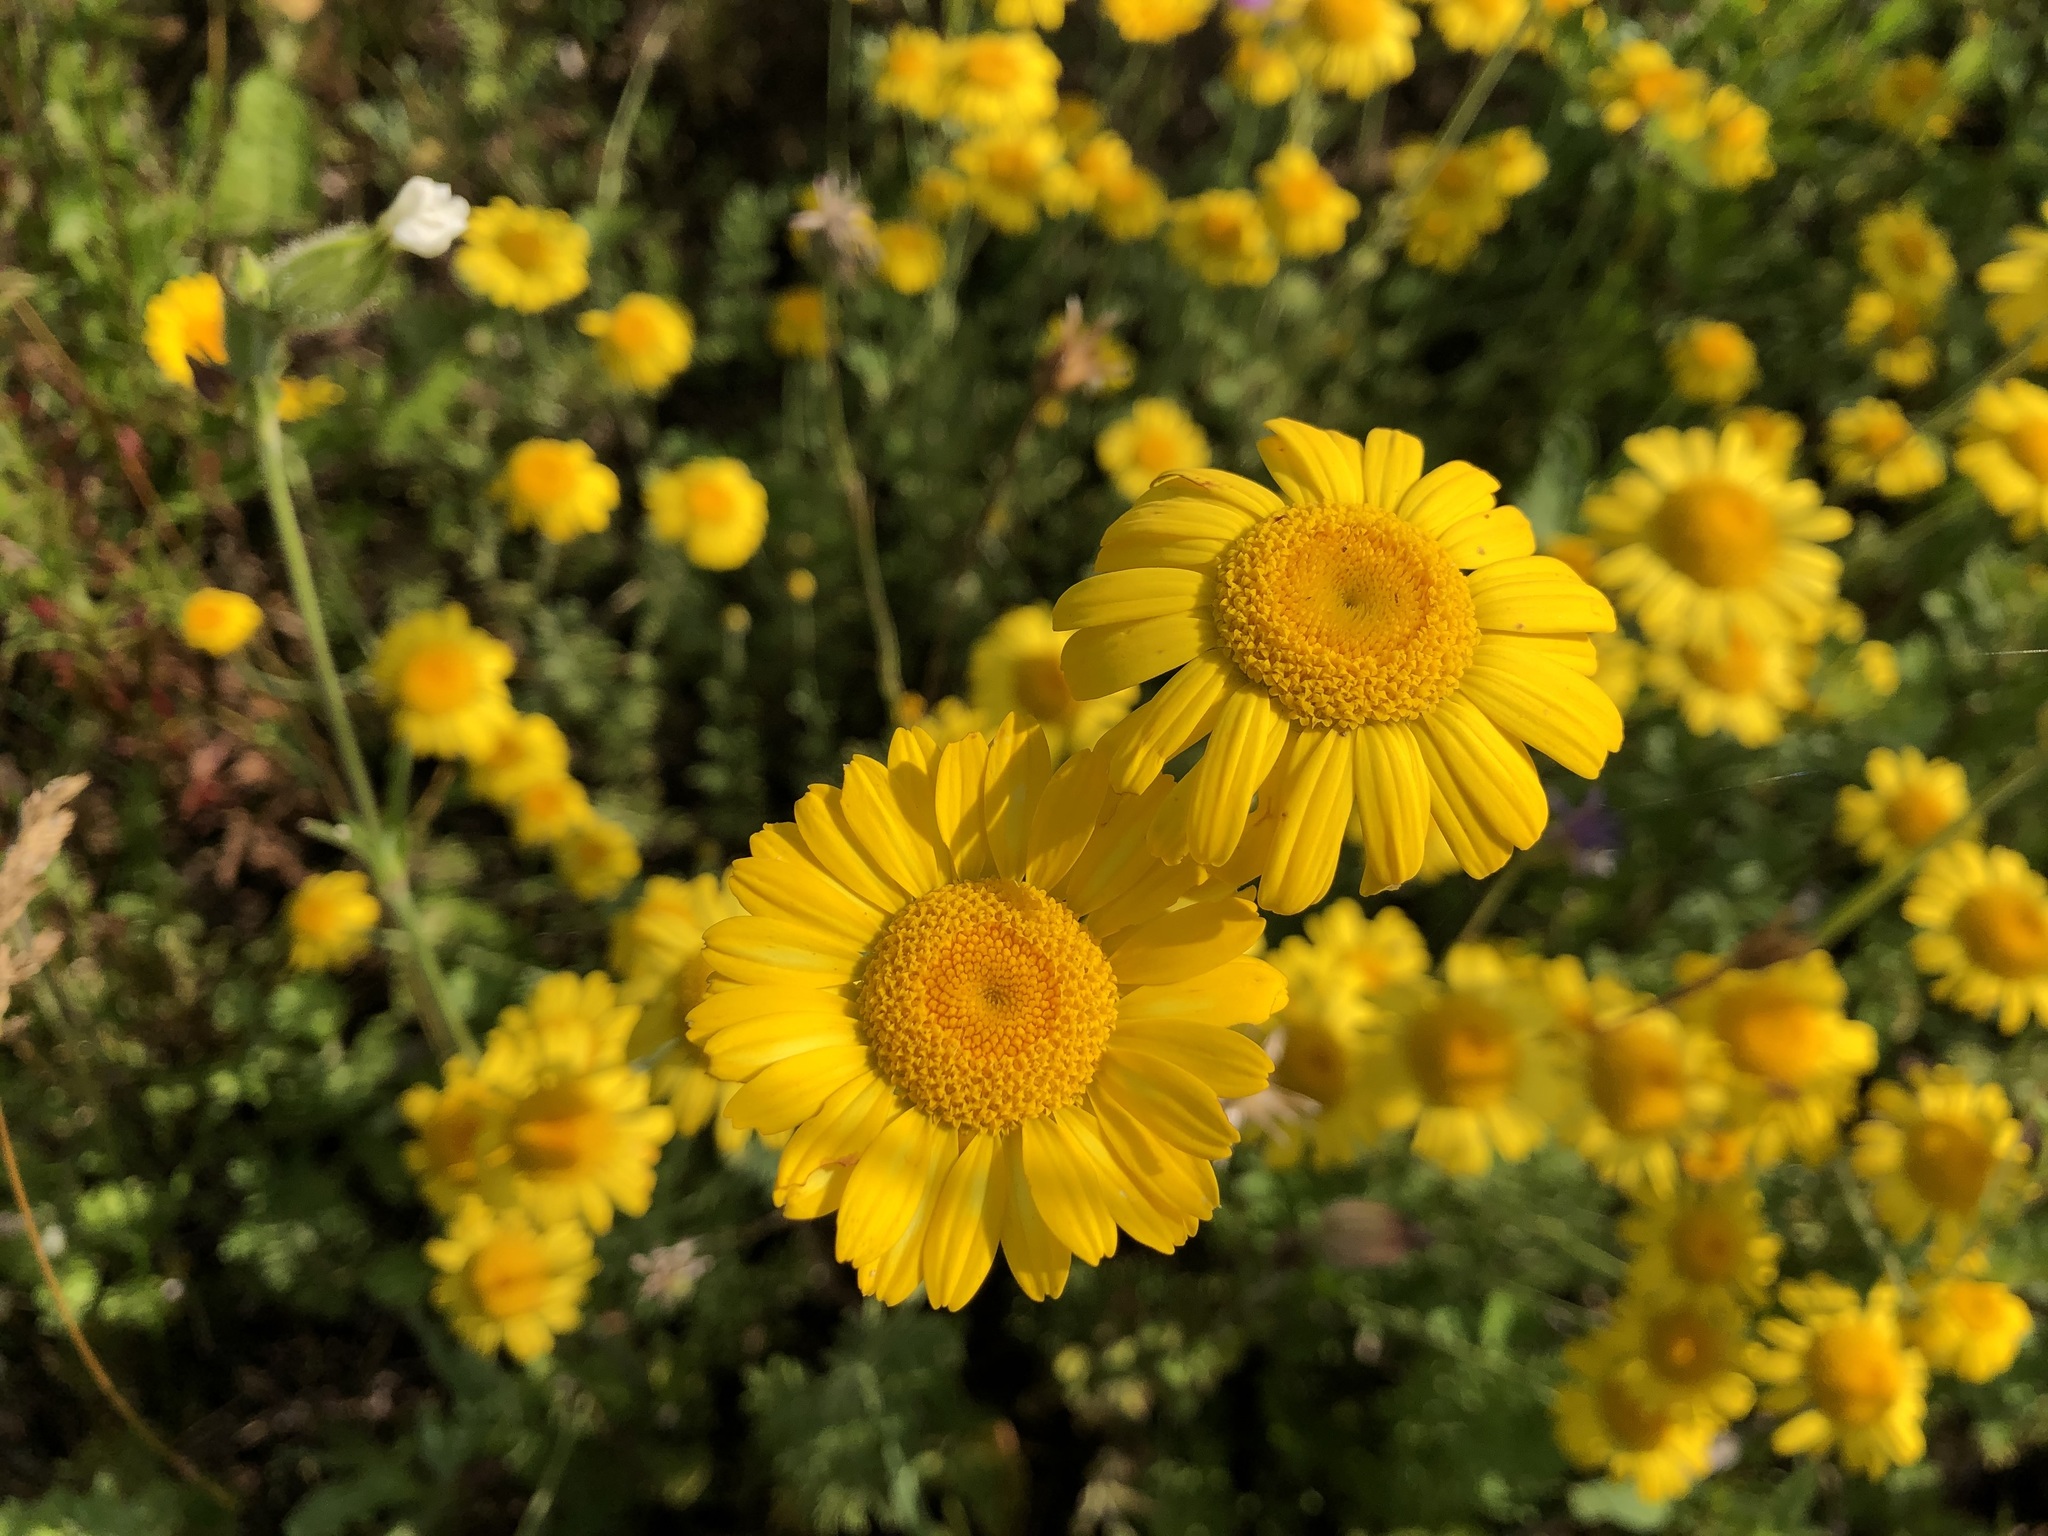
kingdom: Plantae
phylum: Tracheophyta
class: Magnoliopsida
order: Asterales
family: Asteraceae
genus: Cota
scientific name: Cota tinctoria
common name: Golden chamomile
